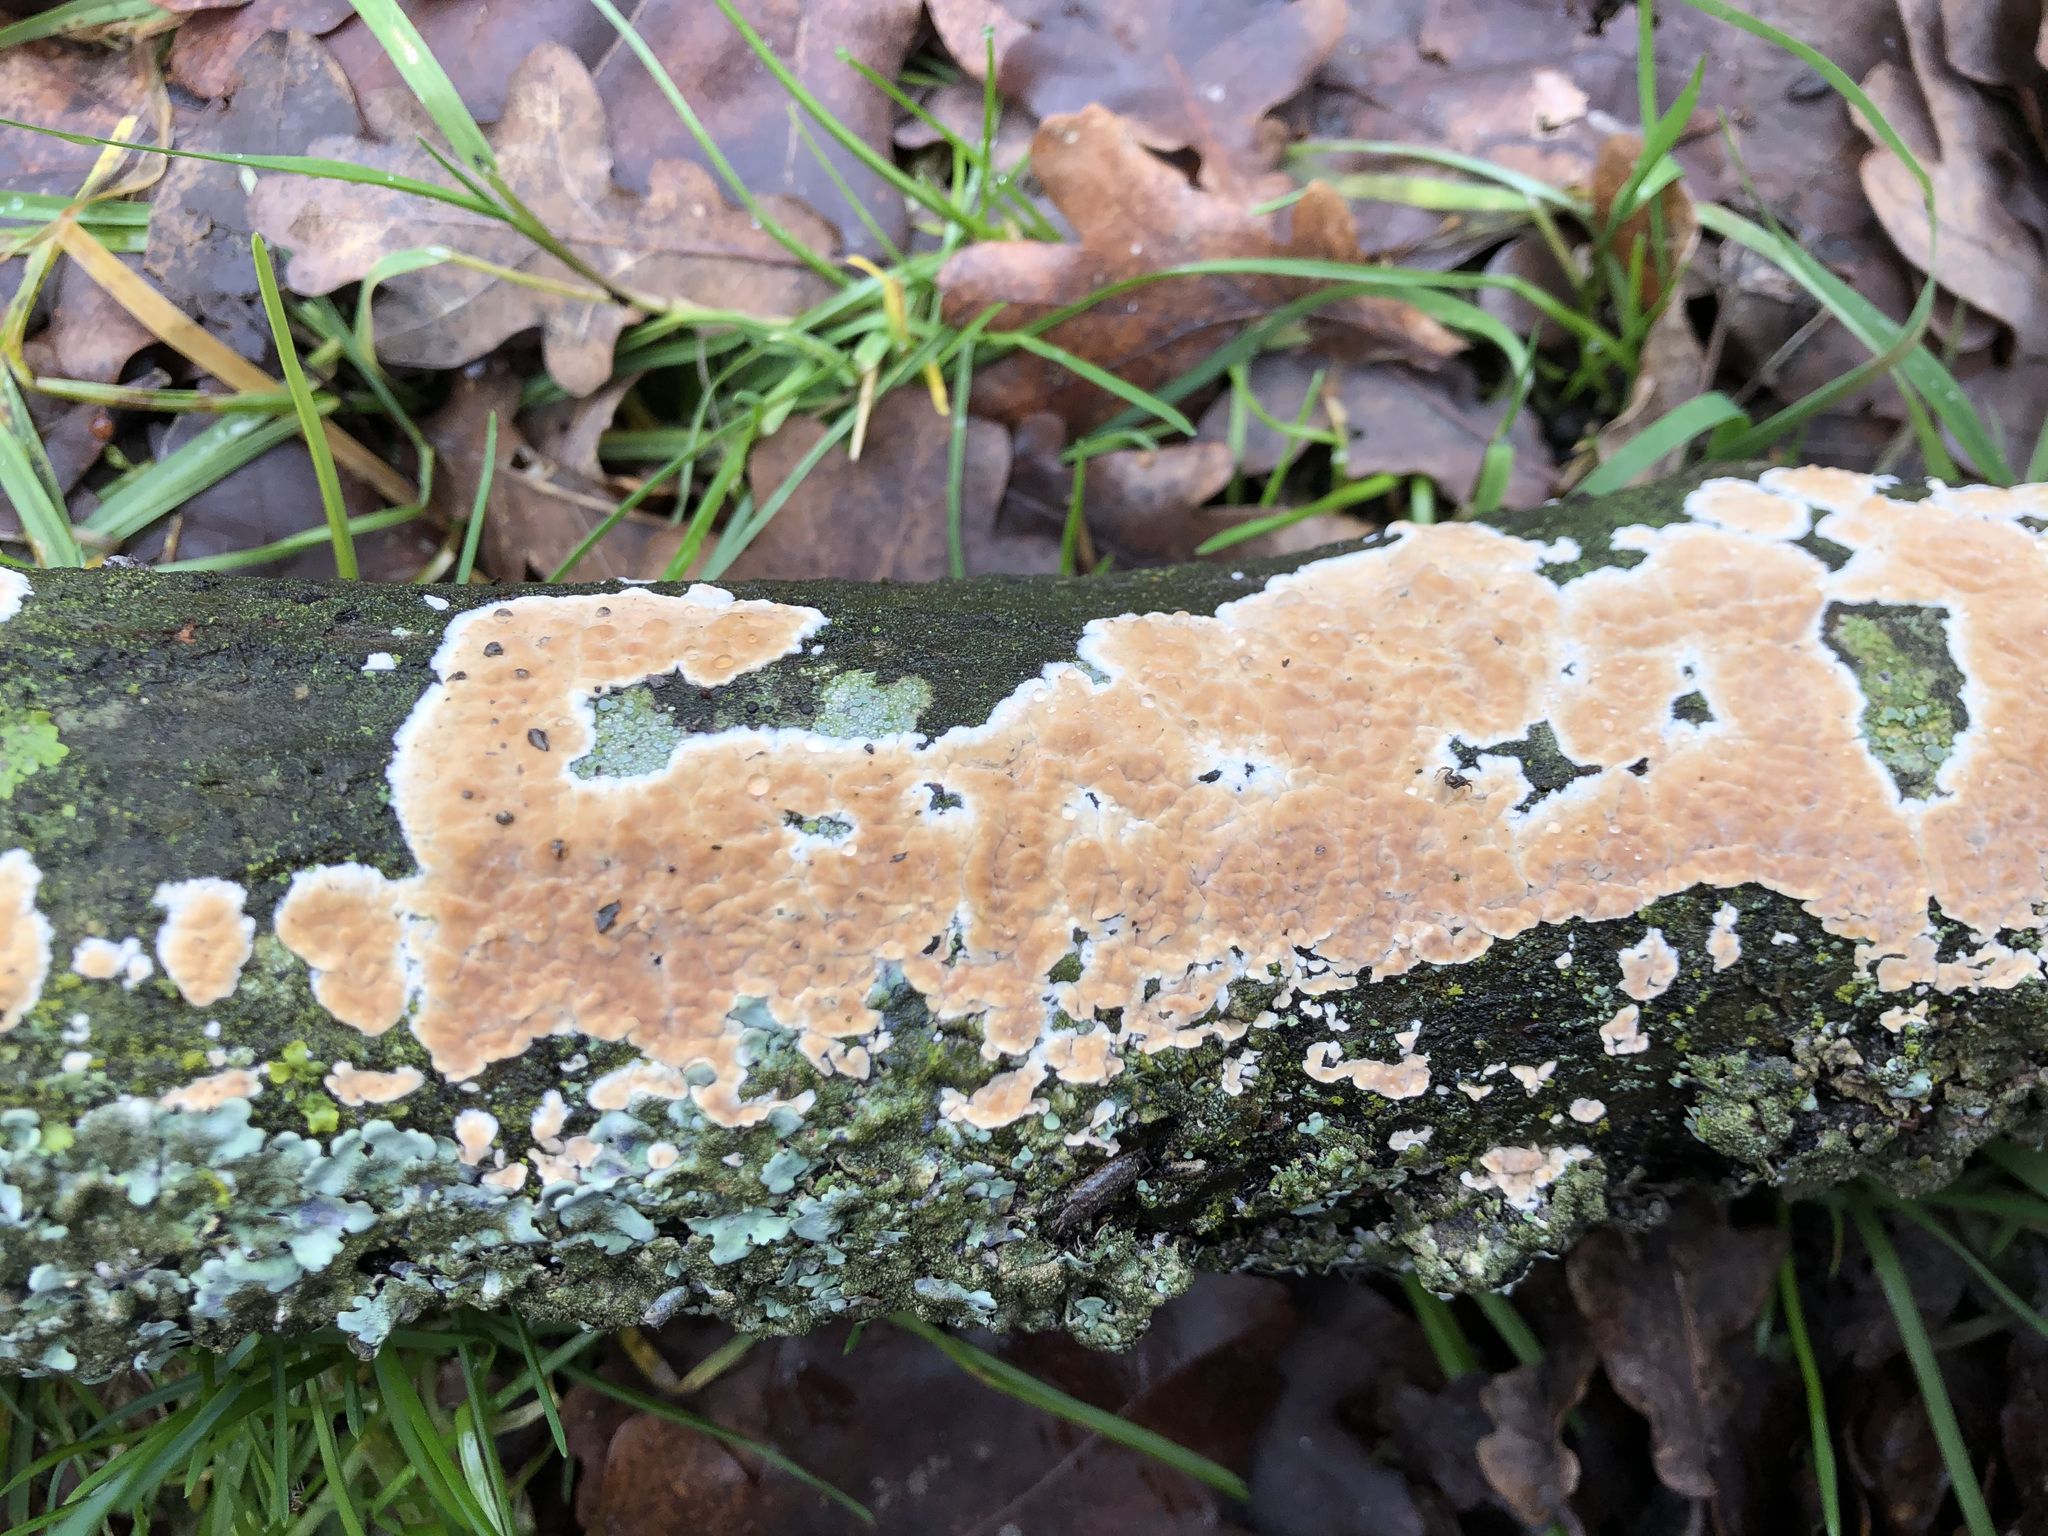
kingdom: Fungi
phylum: Basidiomycota
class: Agaricomycetes
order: Agaricales
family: Physalacriaceae
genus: Cylindrobasidium
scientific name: Cylindrobasidium laeve
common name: Tear dropper
